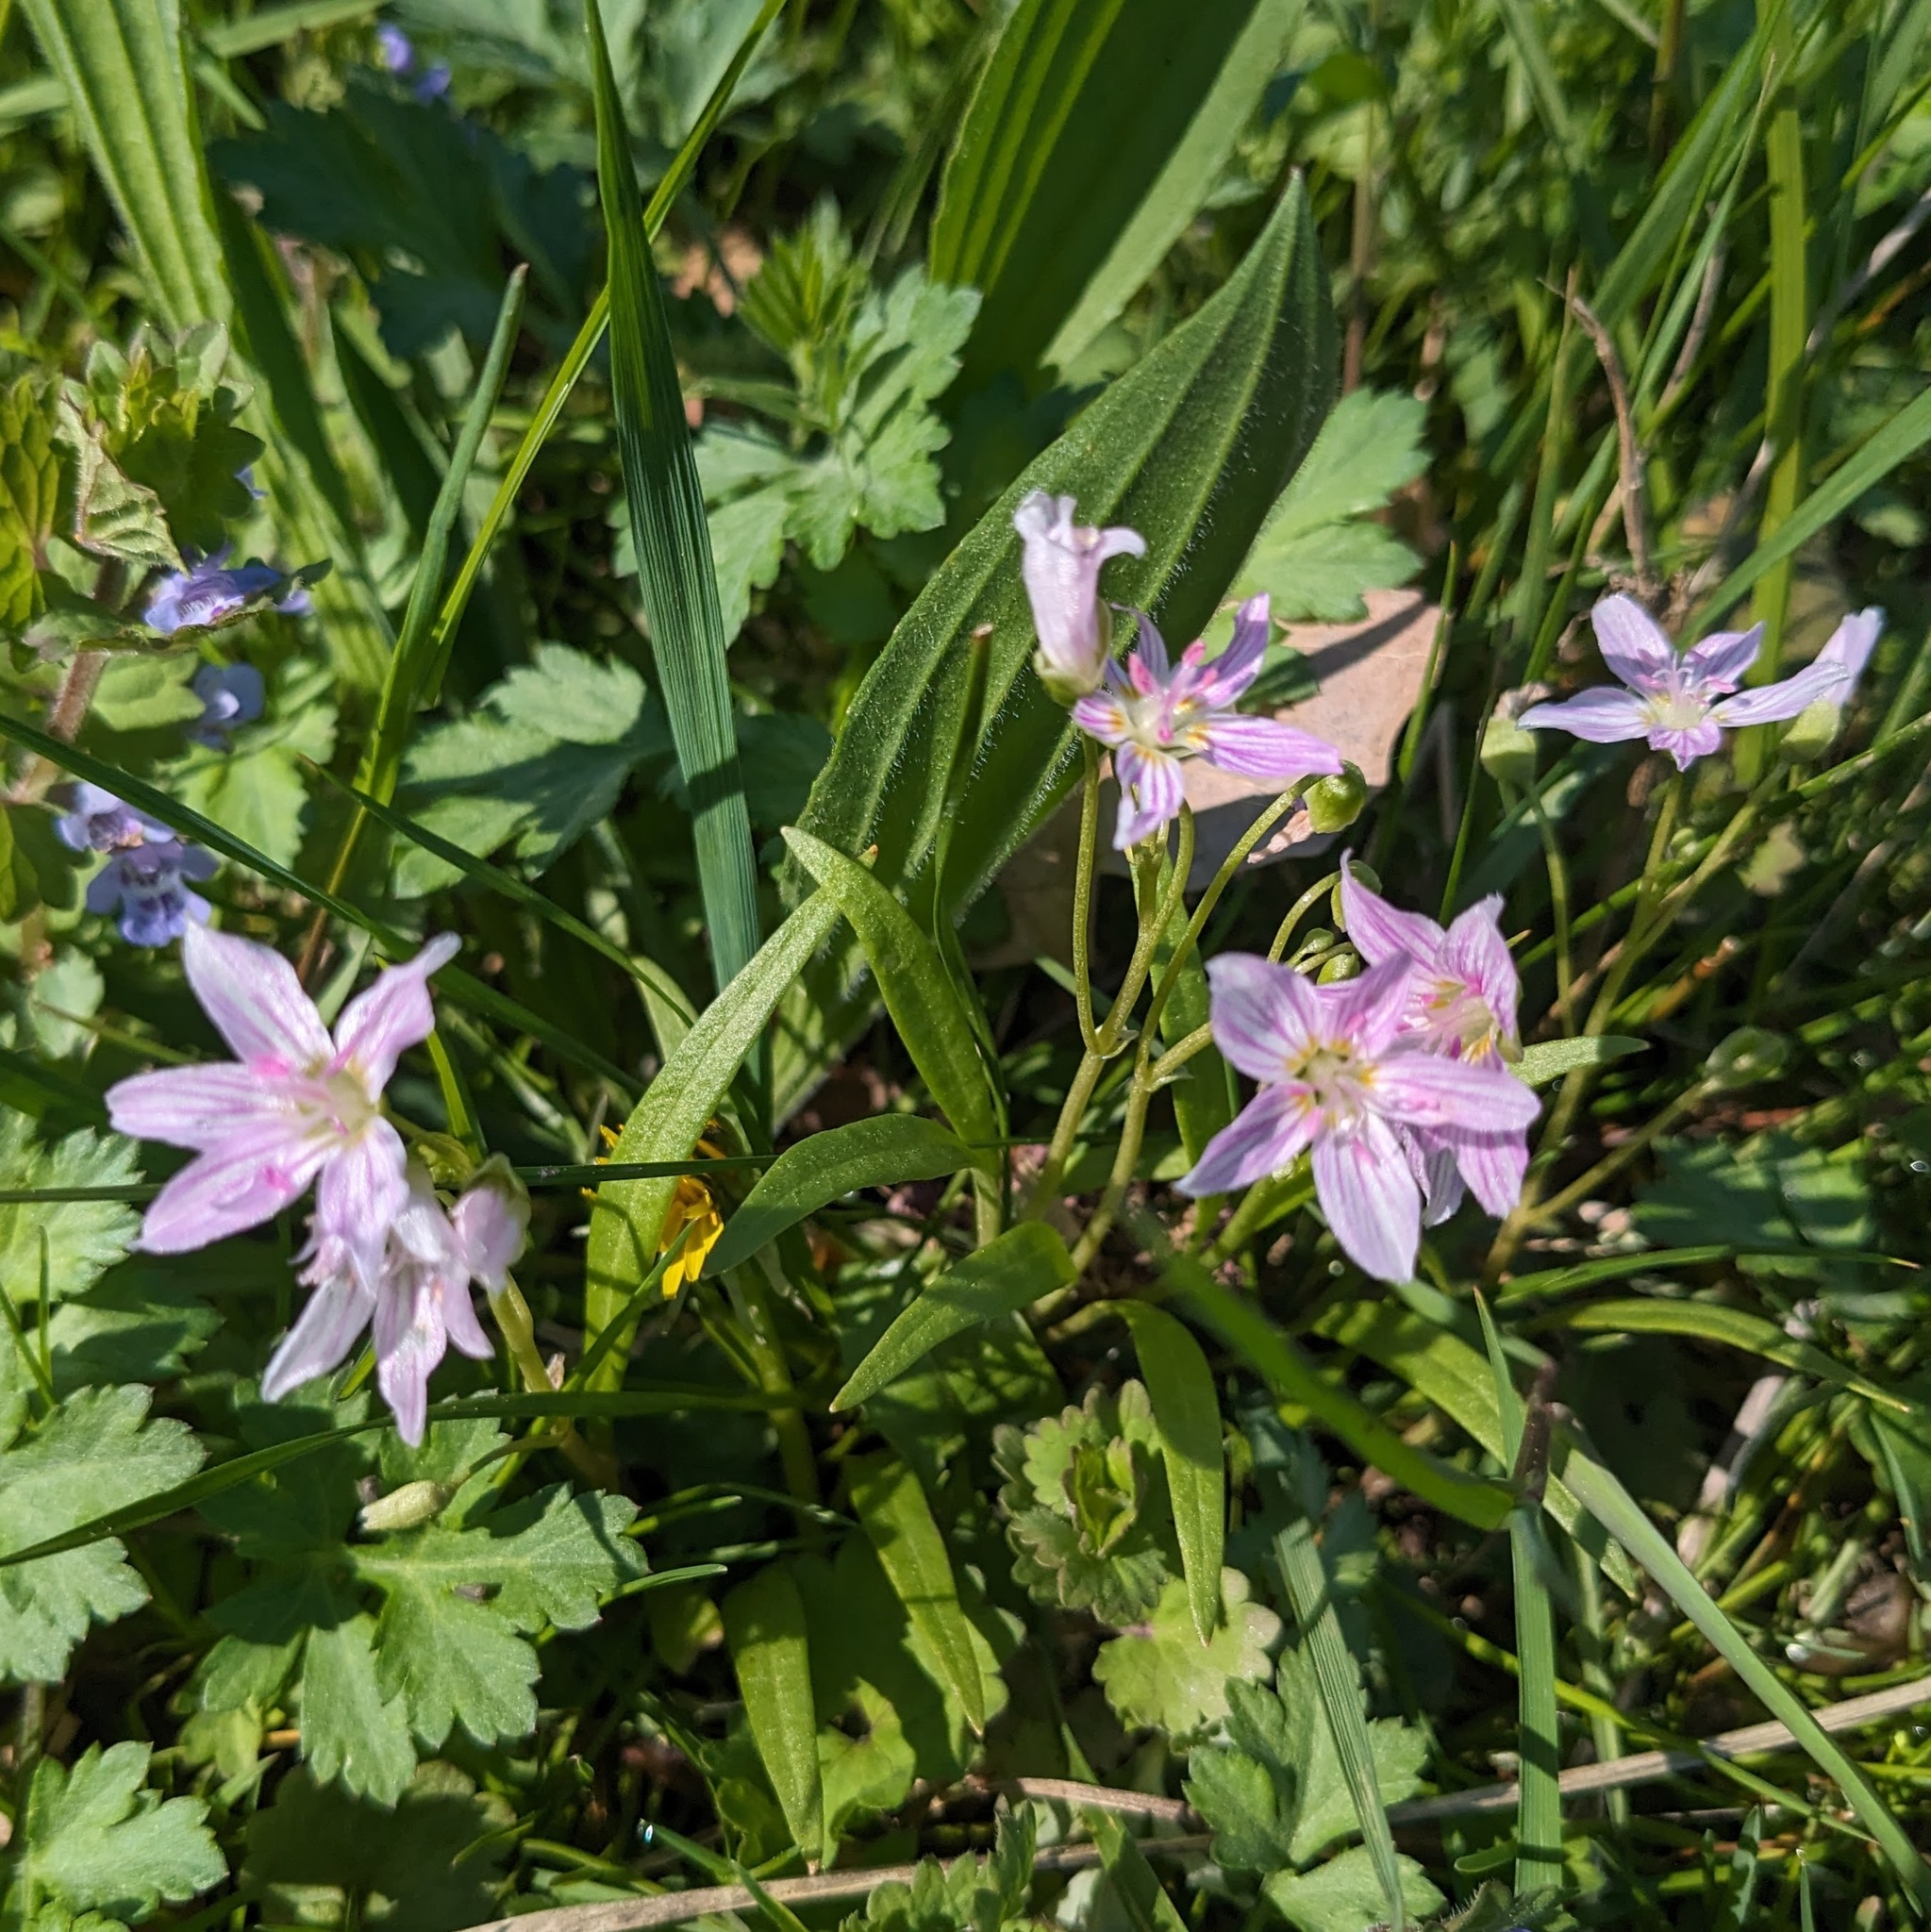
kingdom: Plantae
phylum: Tracheophyta
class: Magnoliopsida
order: Caryophyllales
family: Montiaceae
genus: Claytonia
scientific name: Claytonia virginica
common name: Virginia springbeauty
